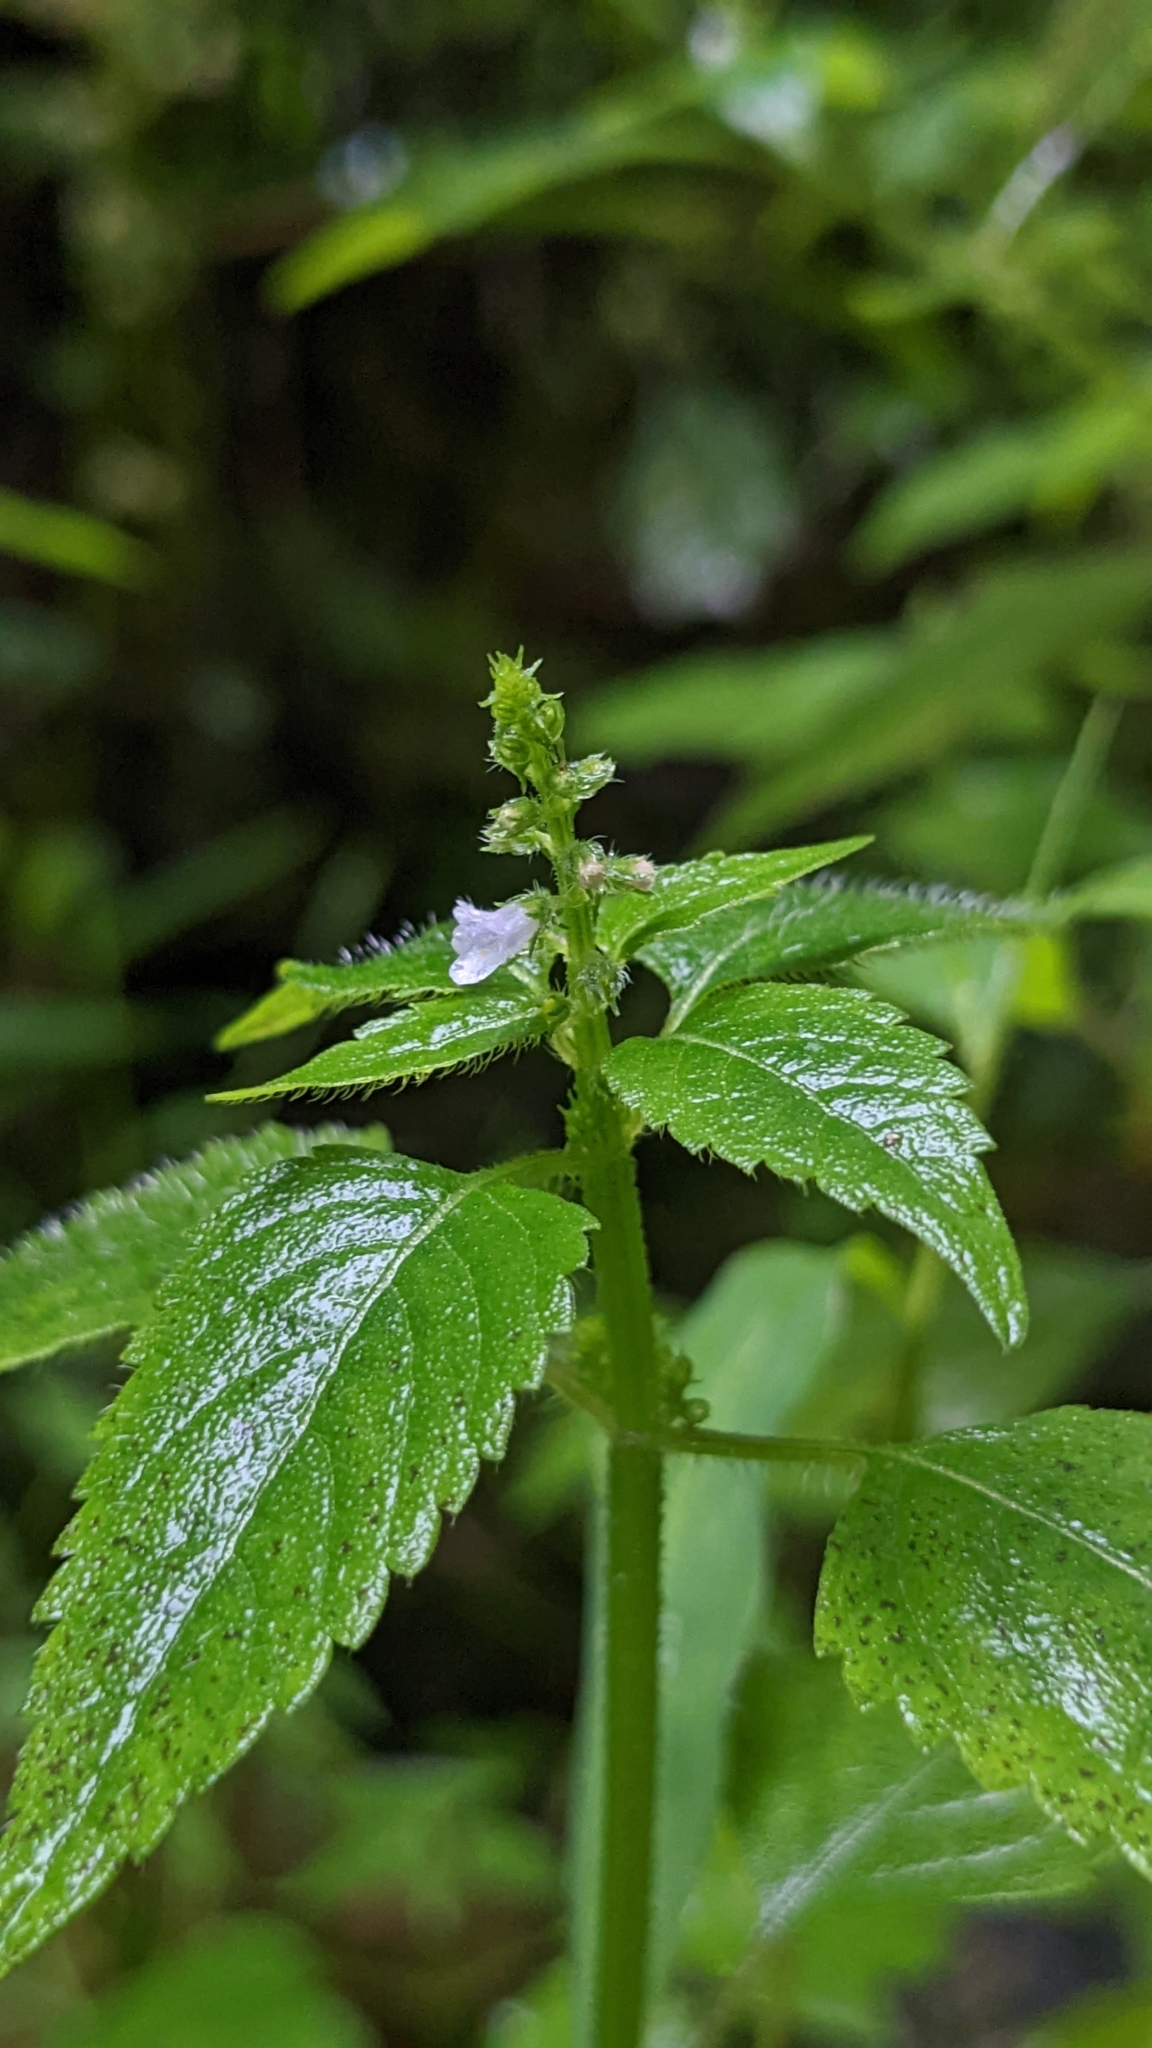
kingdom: Plantae
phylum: Tracheophyta
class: Magnoliopsida
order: Lamiales
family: Lamiaceae
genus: Mosla
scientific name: Mosla cavaleriei
